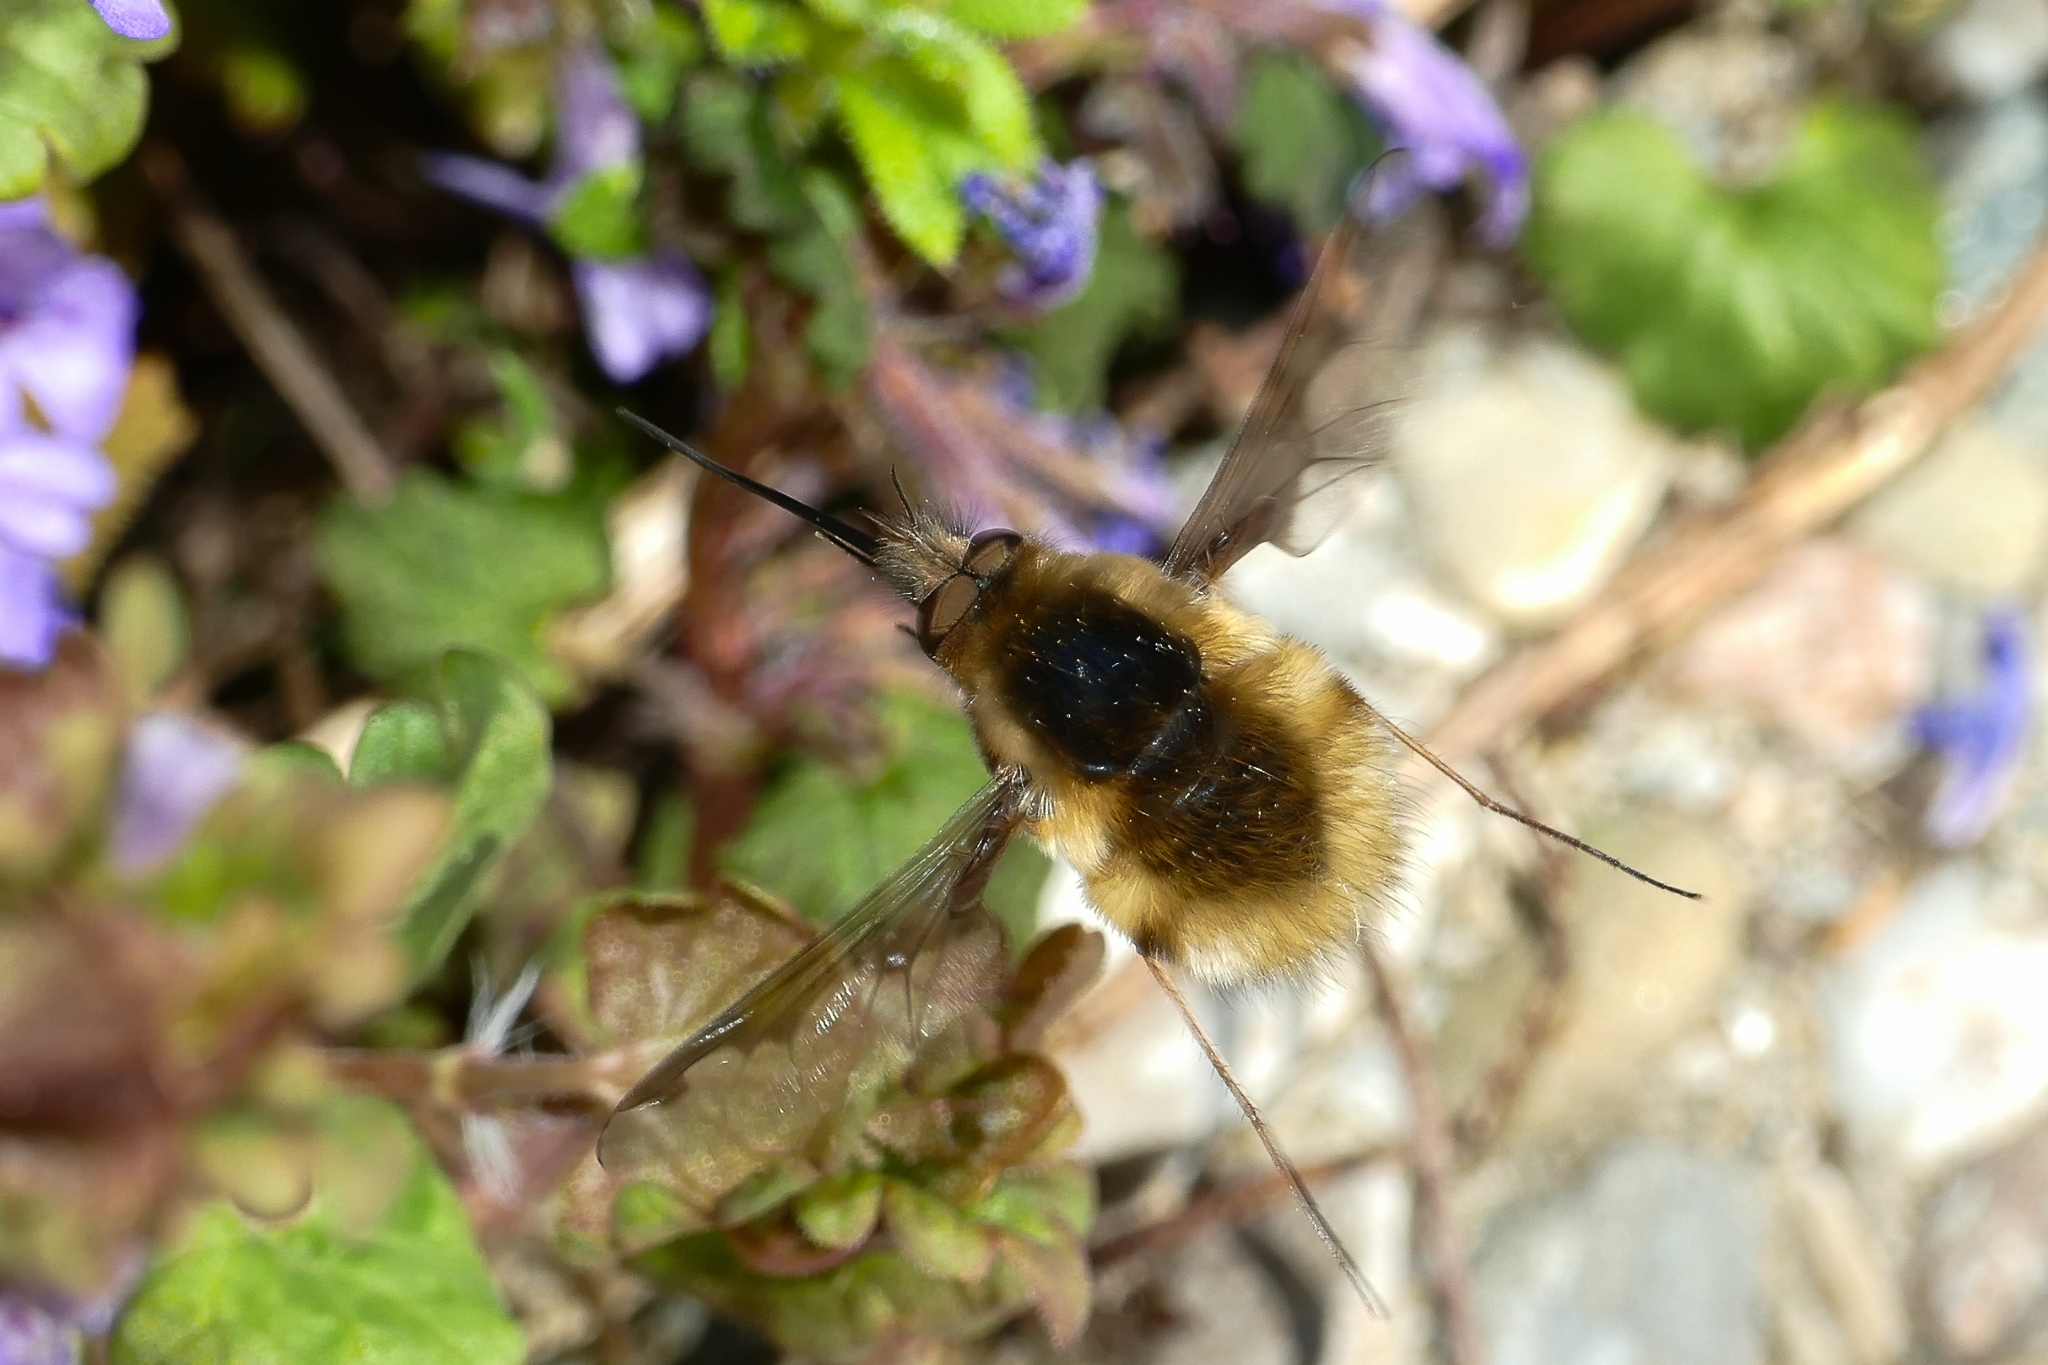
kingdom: Animalia
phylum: Arthropoda
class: Insecta
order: Diptera
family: Bombyliidae
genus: Bombylius
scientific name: Bombylius major
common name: Bee fly
